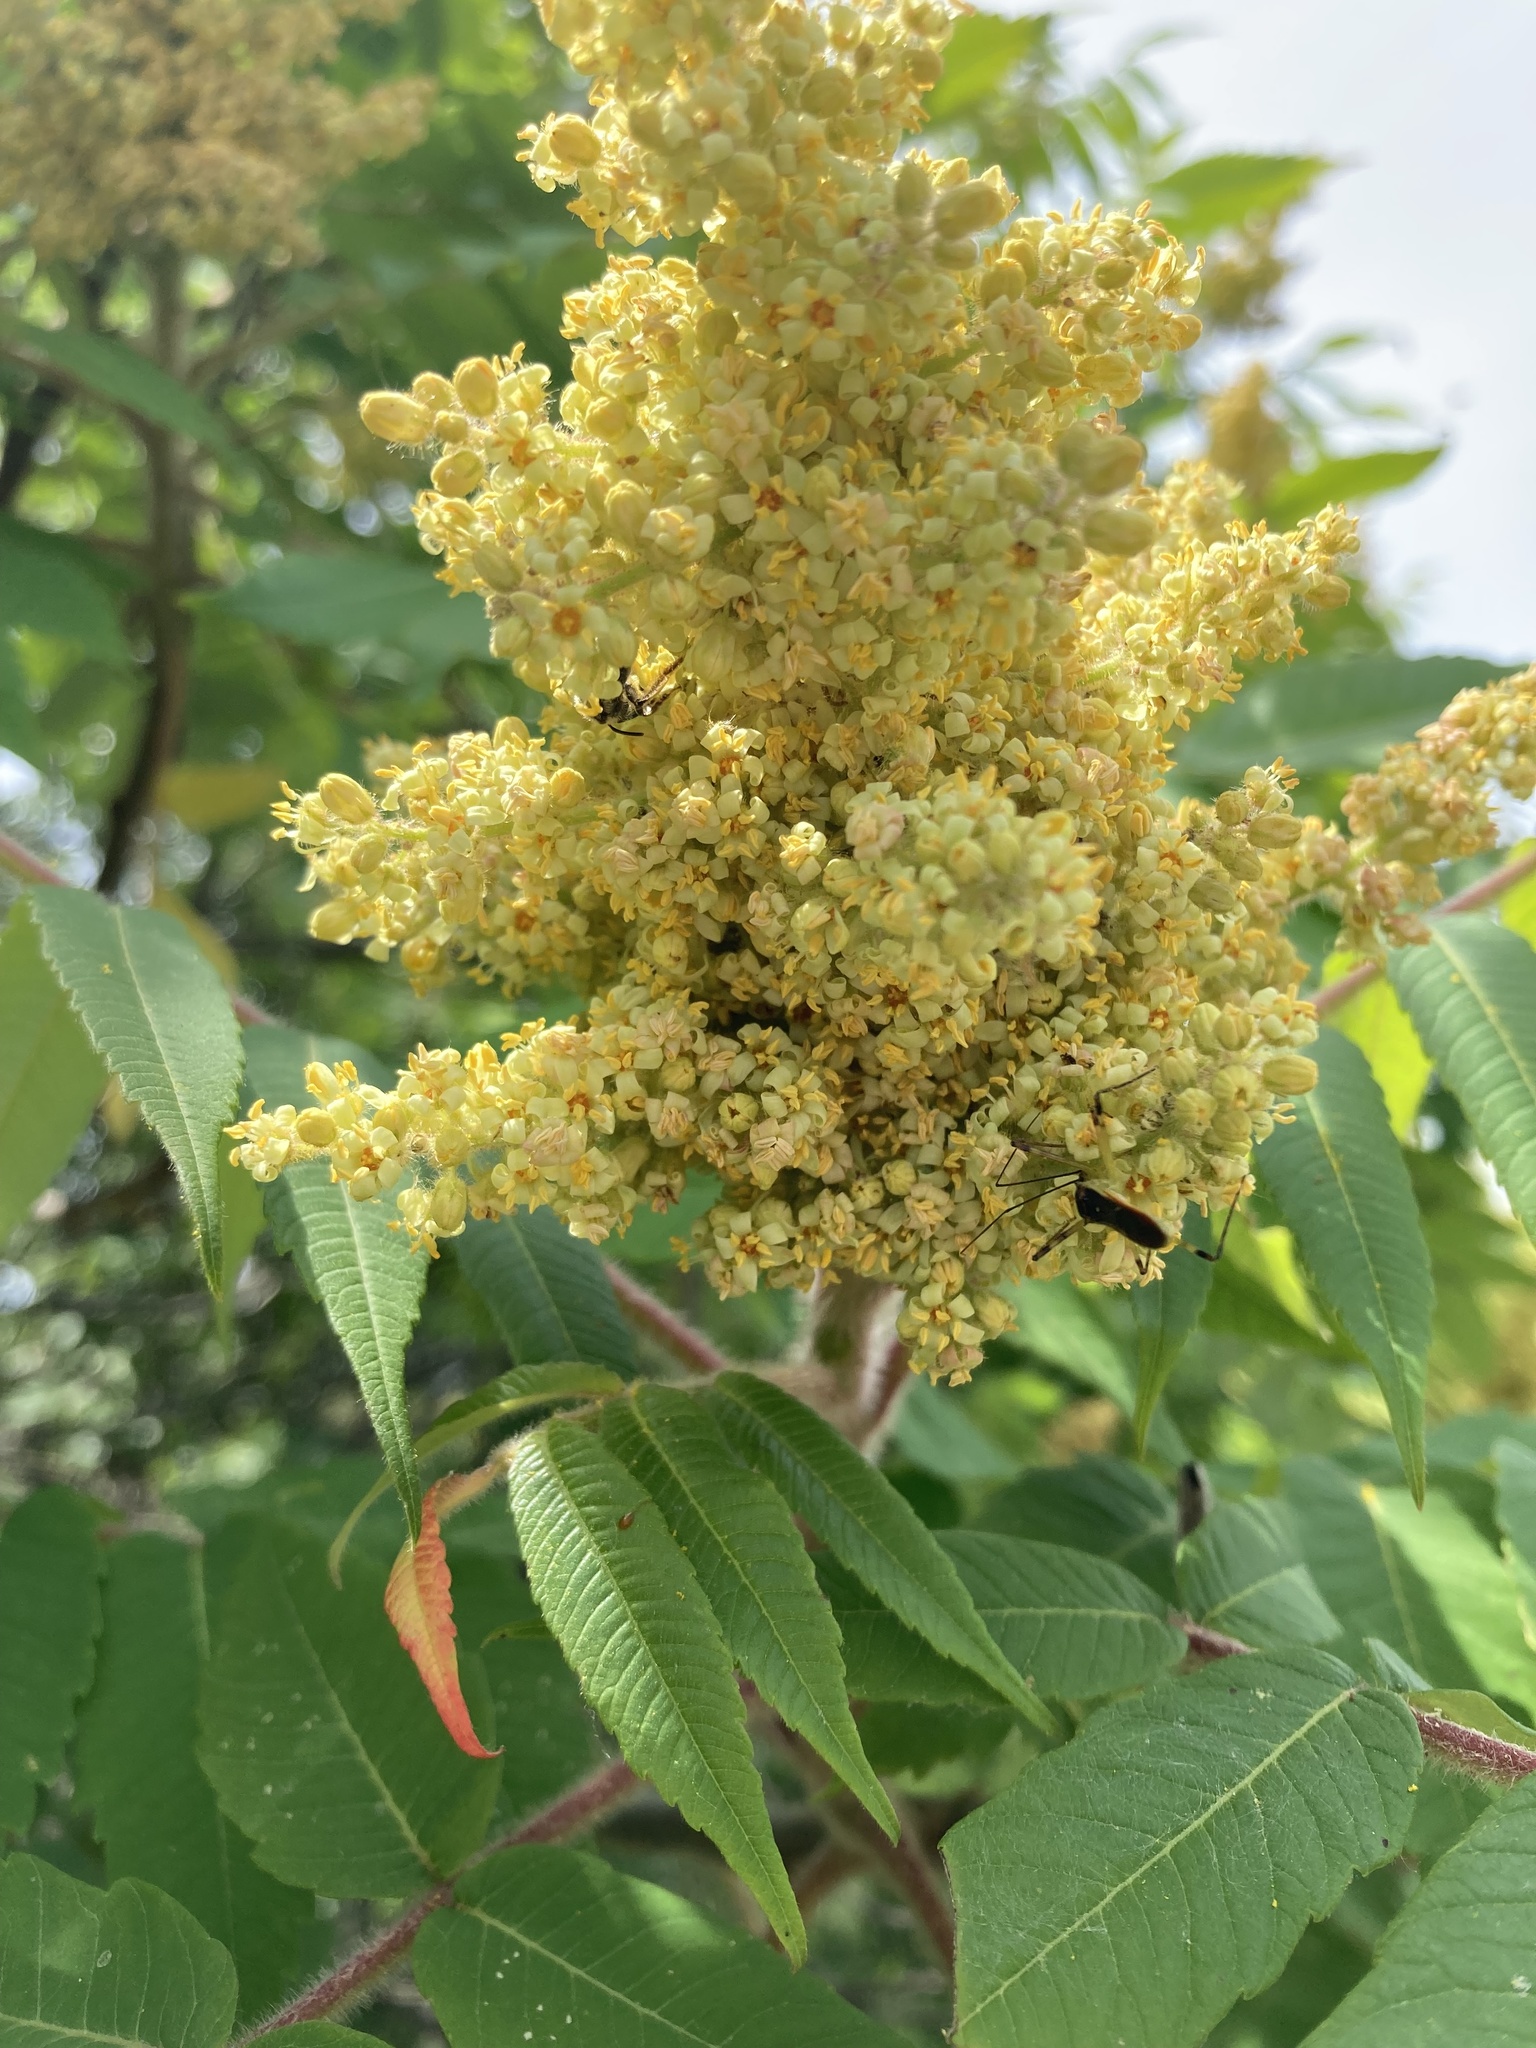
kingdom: Animalia
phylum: Arthropoda
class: Insecta
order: Hemiptera
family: Reduviidae
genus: Zelus
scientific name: Zelus luridus
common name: Pale green assassin bug
